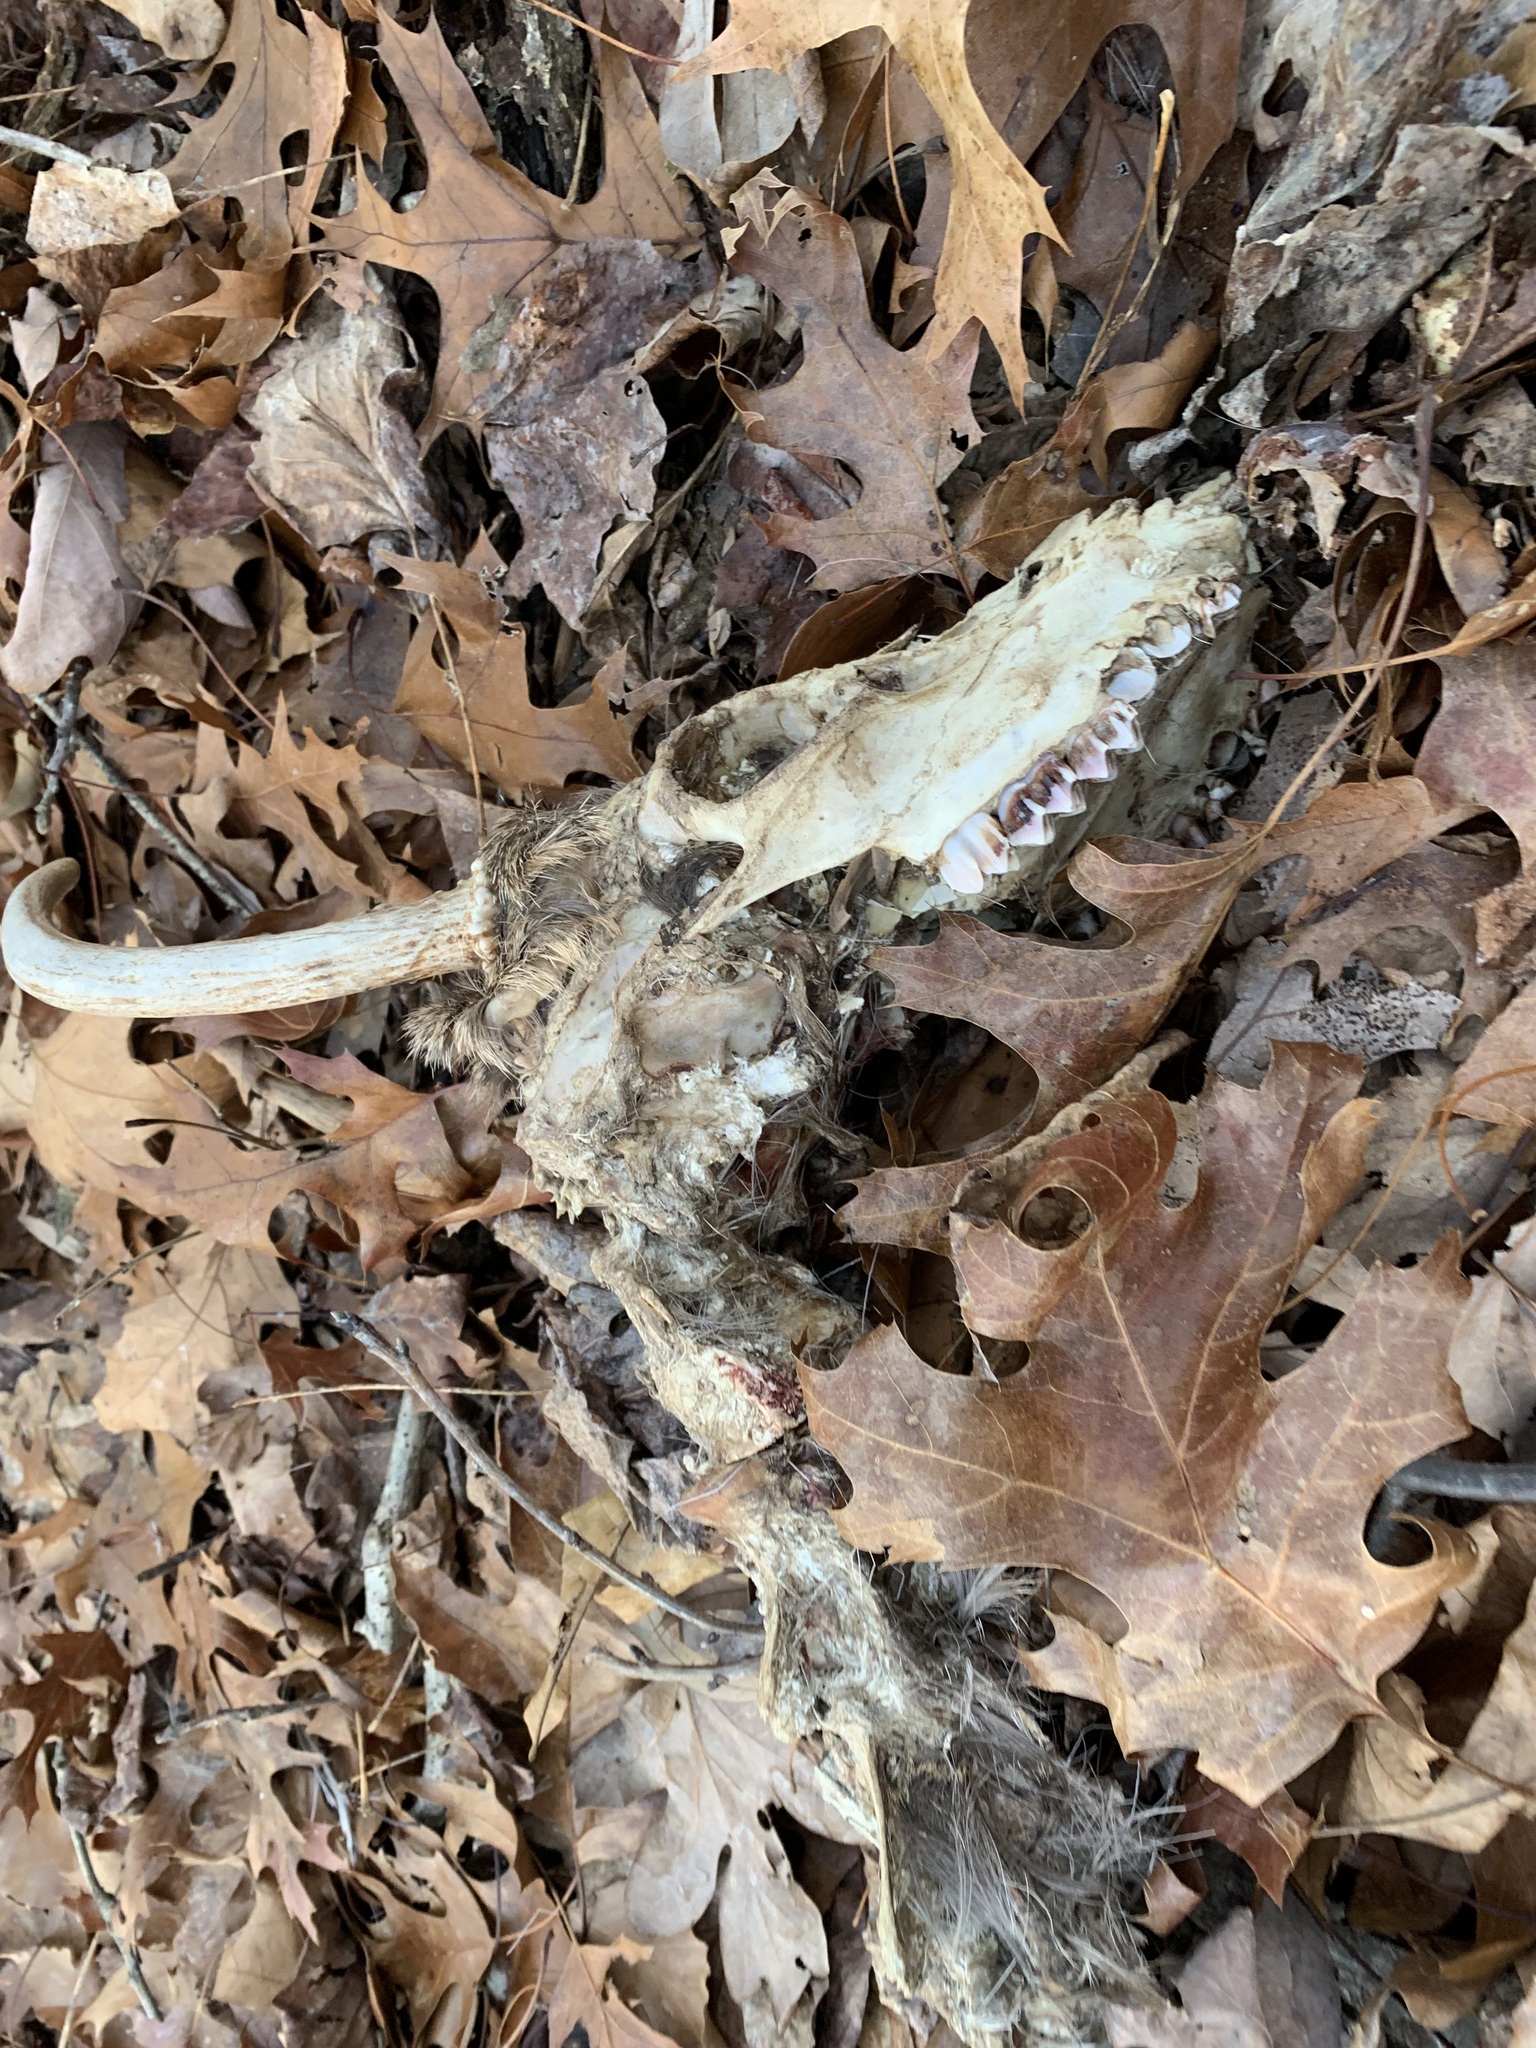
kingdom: Animalia
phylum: Chordata
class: Mammalia
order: Artiodactyla
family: Cervidae
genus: Odocoileus
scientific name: Odocoileus virginianus
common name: White-tailed deer
